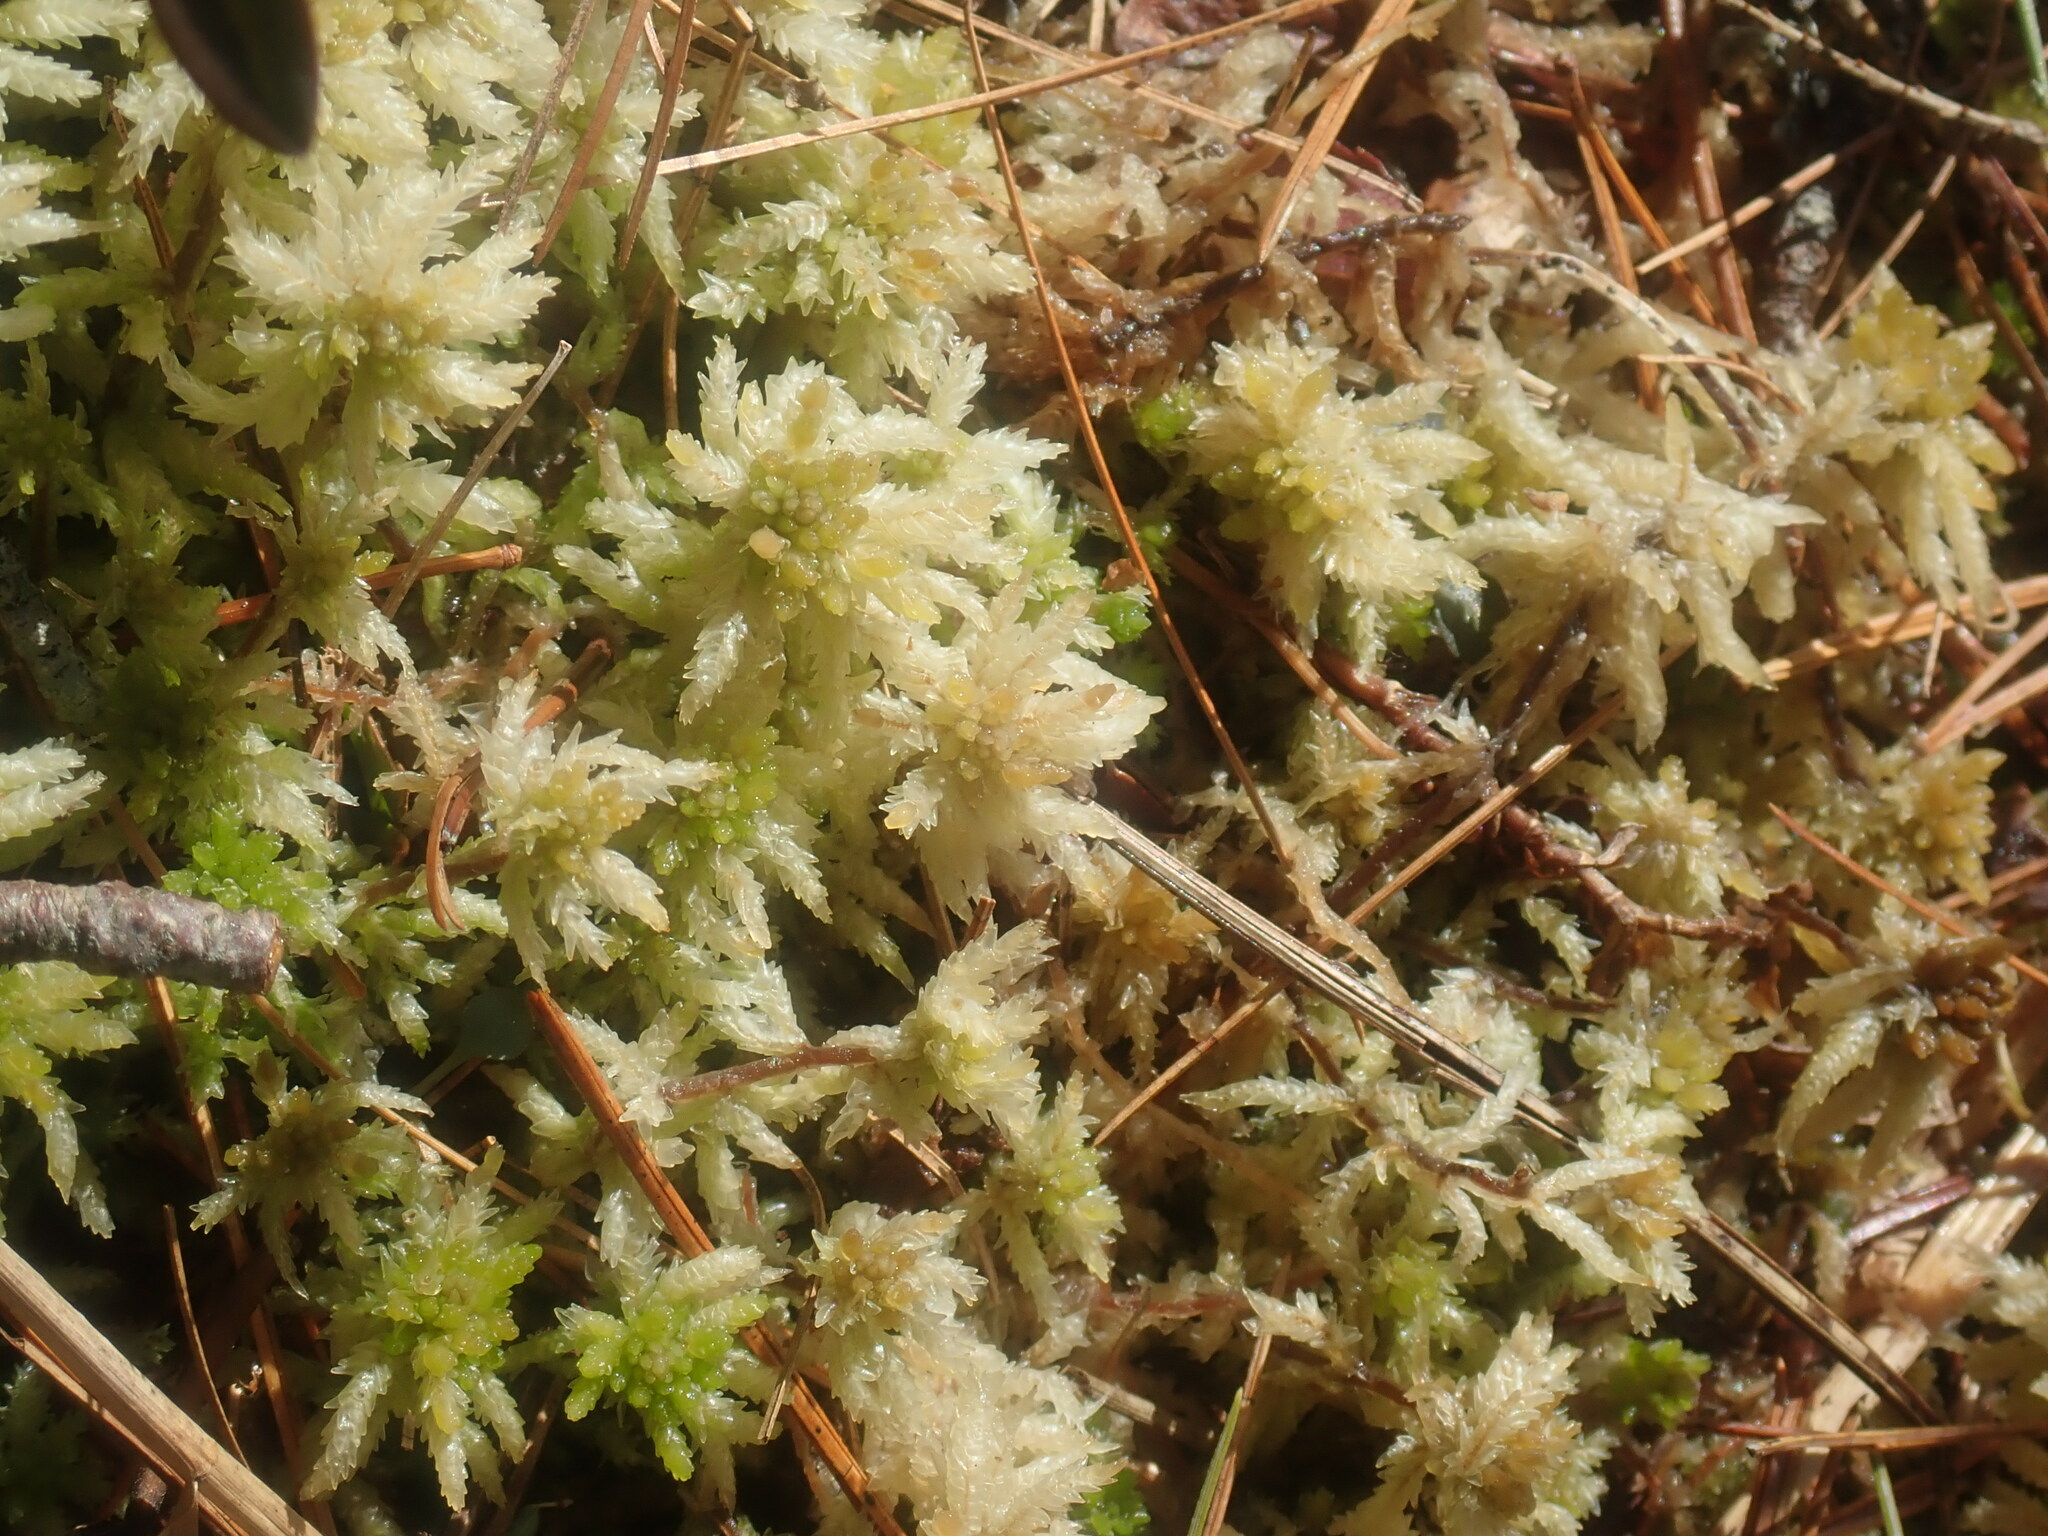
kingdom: Plantae
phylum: Bryophyta
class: Sphagnopsida
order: Sphagnales
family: Sphagnaceae
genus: Sphagnum
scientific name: Sphagnum
